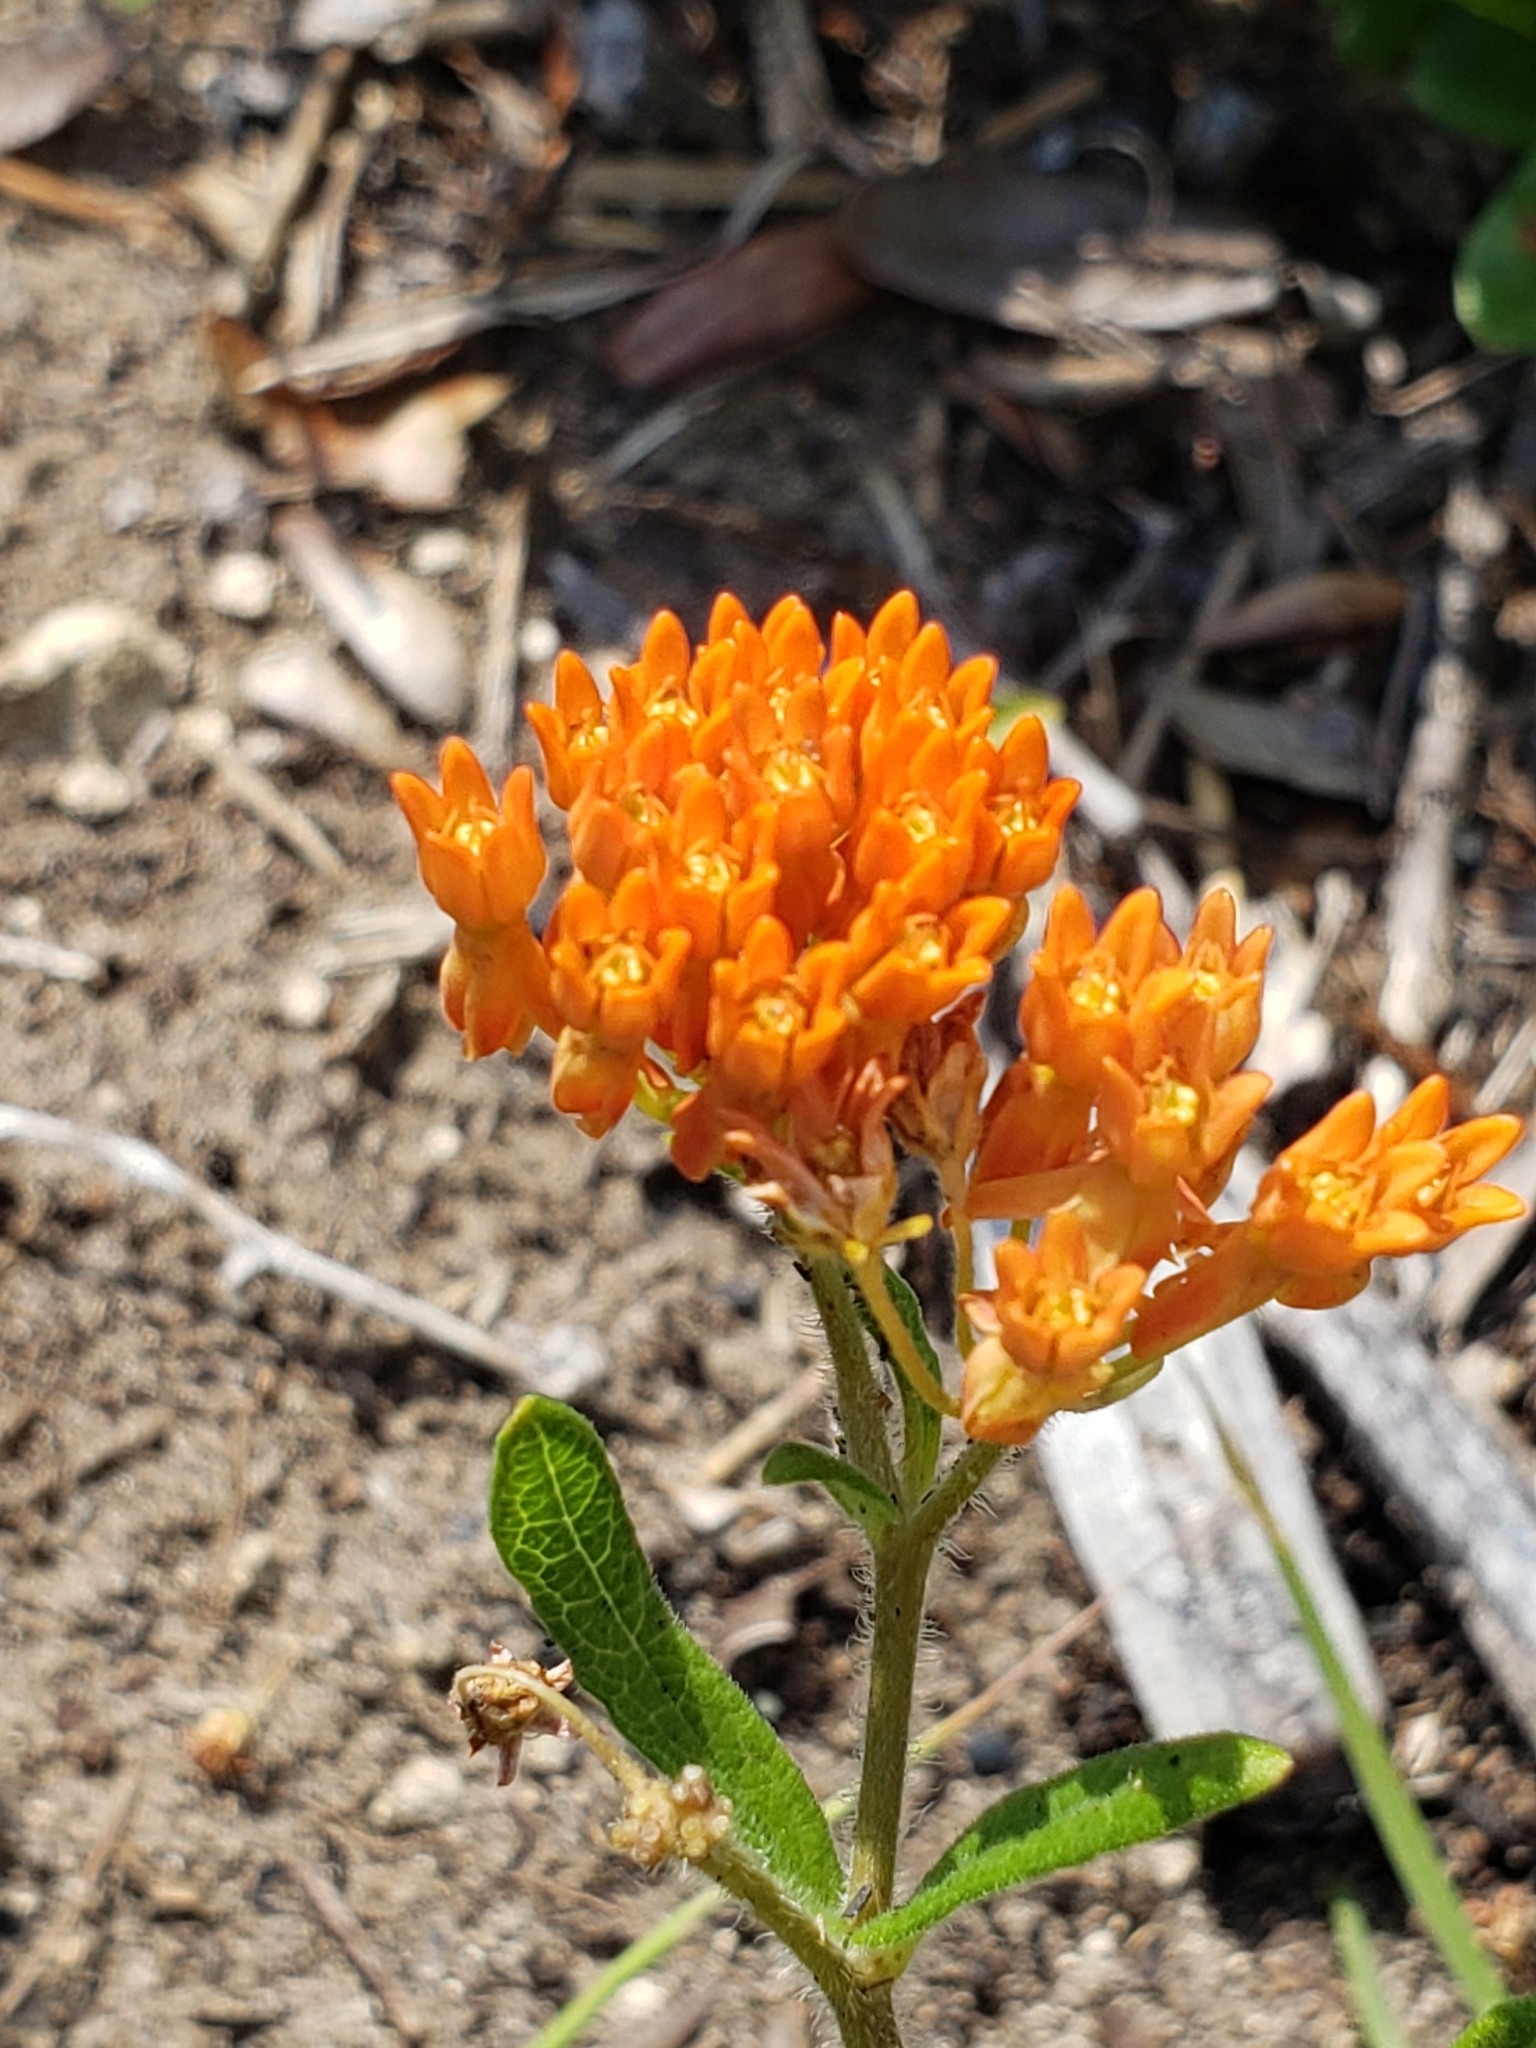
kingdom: Plantae
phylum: Tracheophyta
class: Magnoliopsida
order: Gentianales
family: Apocynaceae
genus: Asclepias
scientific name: Asclepias tuberosa
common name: Butterfly milkweed
